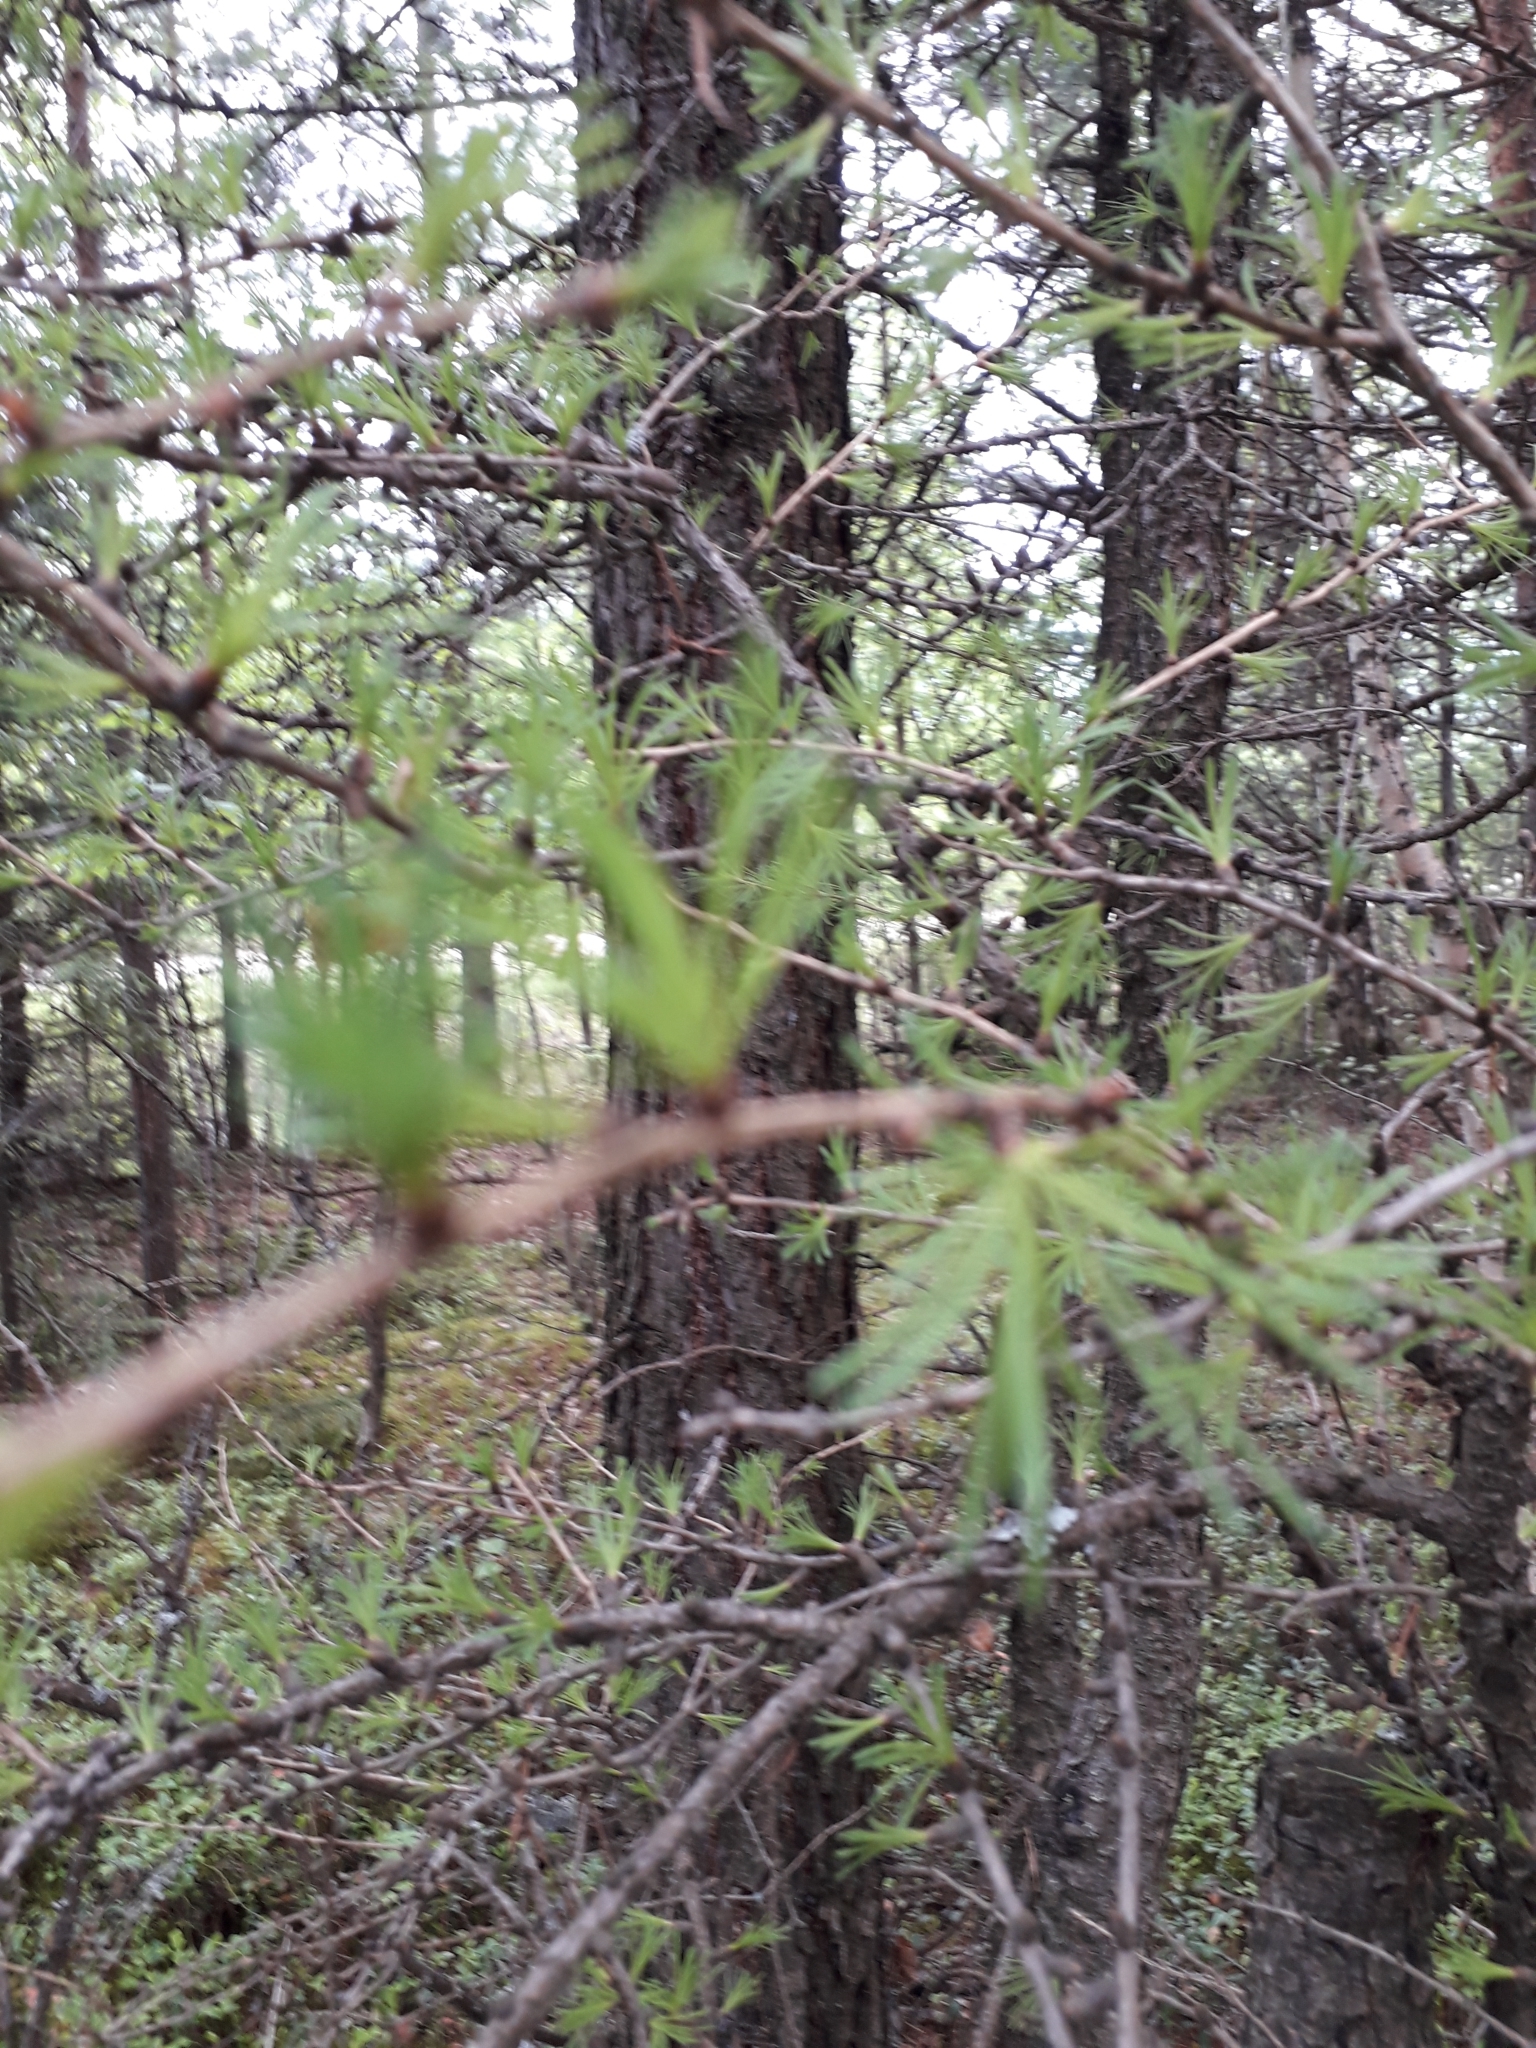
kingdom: Plantae
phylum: Tracheophyta
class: Pinopsida
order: Pinales
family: Pinaceae
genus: Larix
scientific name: Larix sibirica
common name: Siberian larch
